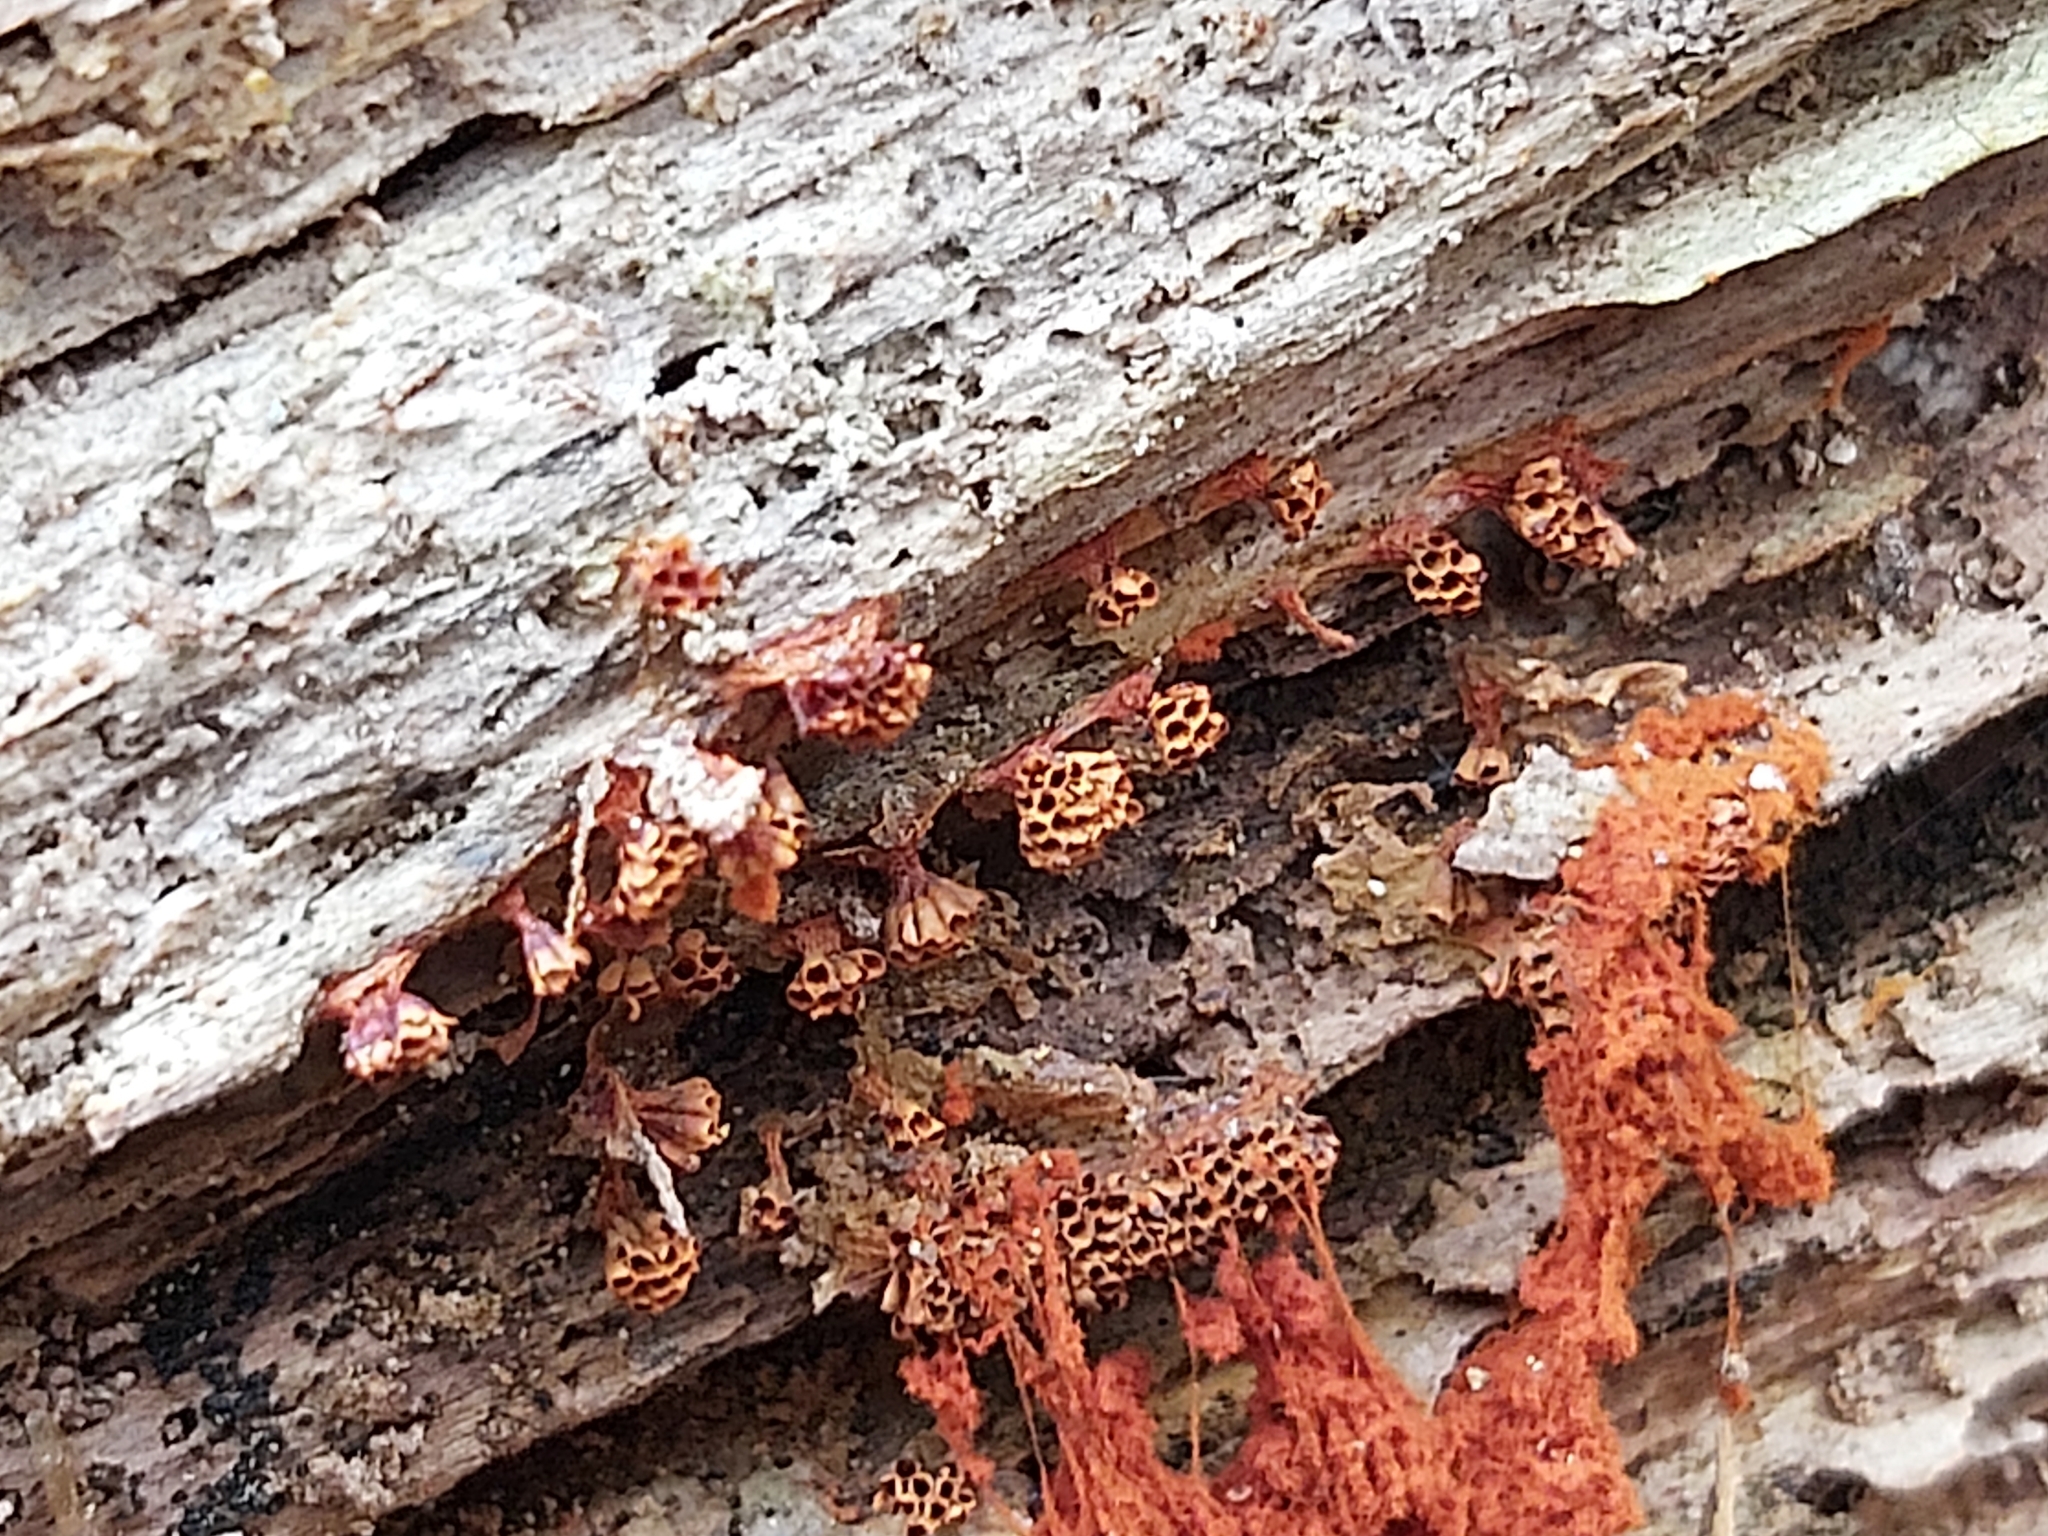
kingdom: Protozoa
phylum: Mycetozoa
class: Myxomycetes
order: Trichiales
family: Trichiaceae
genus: Metatrichia
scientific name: Metatrichia vesparia
